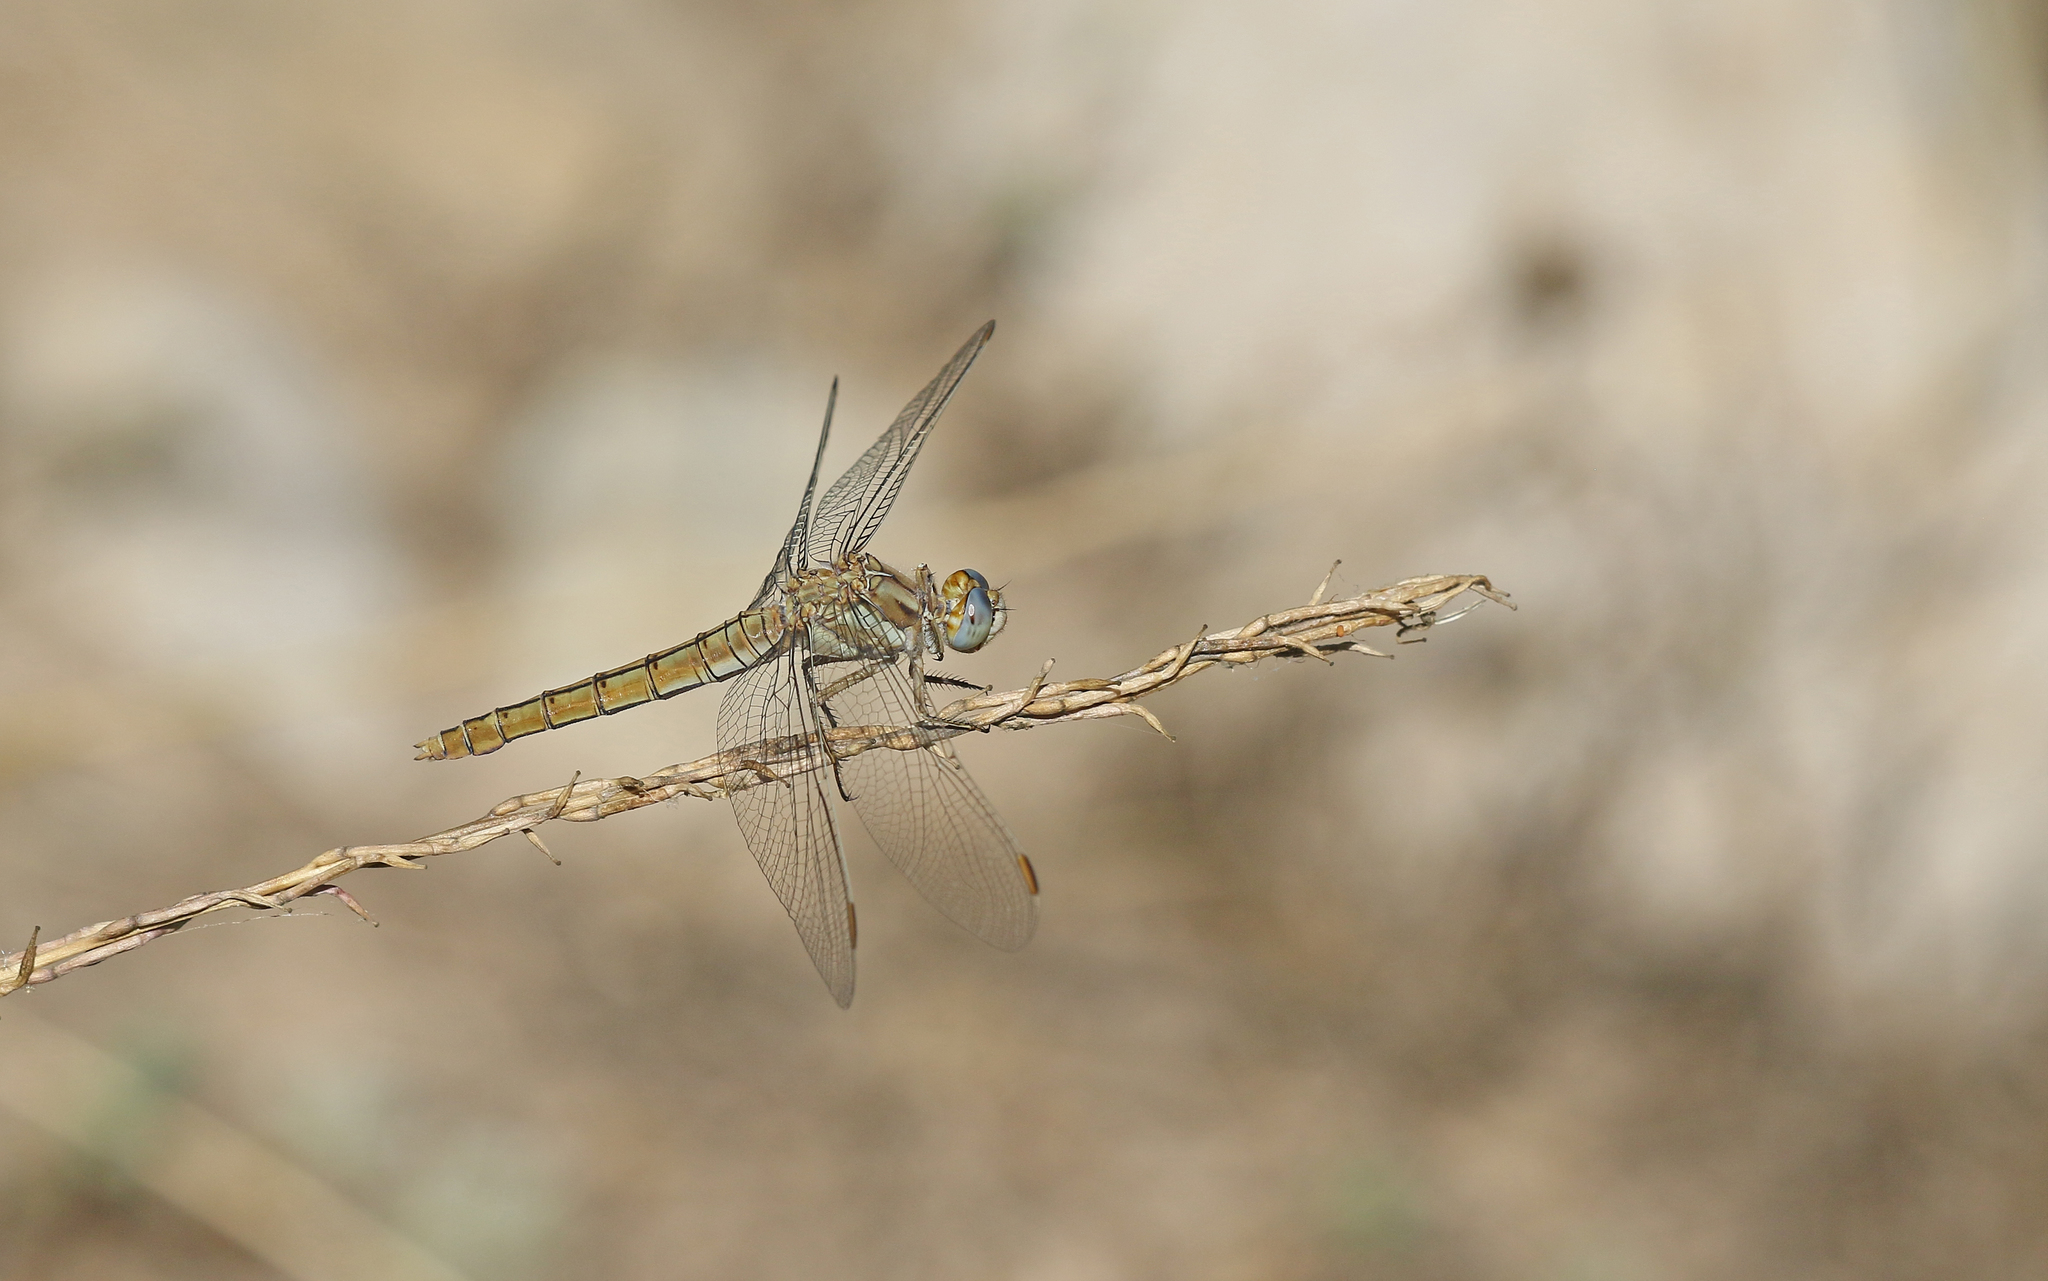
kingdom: Animalia
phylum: Arthropoda
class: Insecta
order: Odonata
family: Libellulidae
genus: Orthetrum
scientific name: Orthetrum brunneum
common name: Southern skimmer
